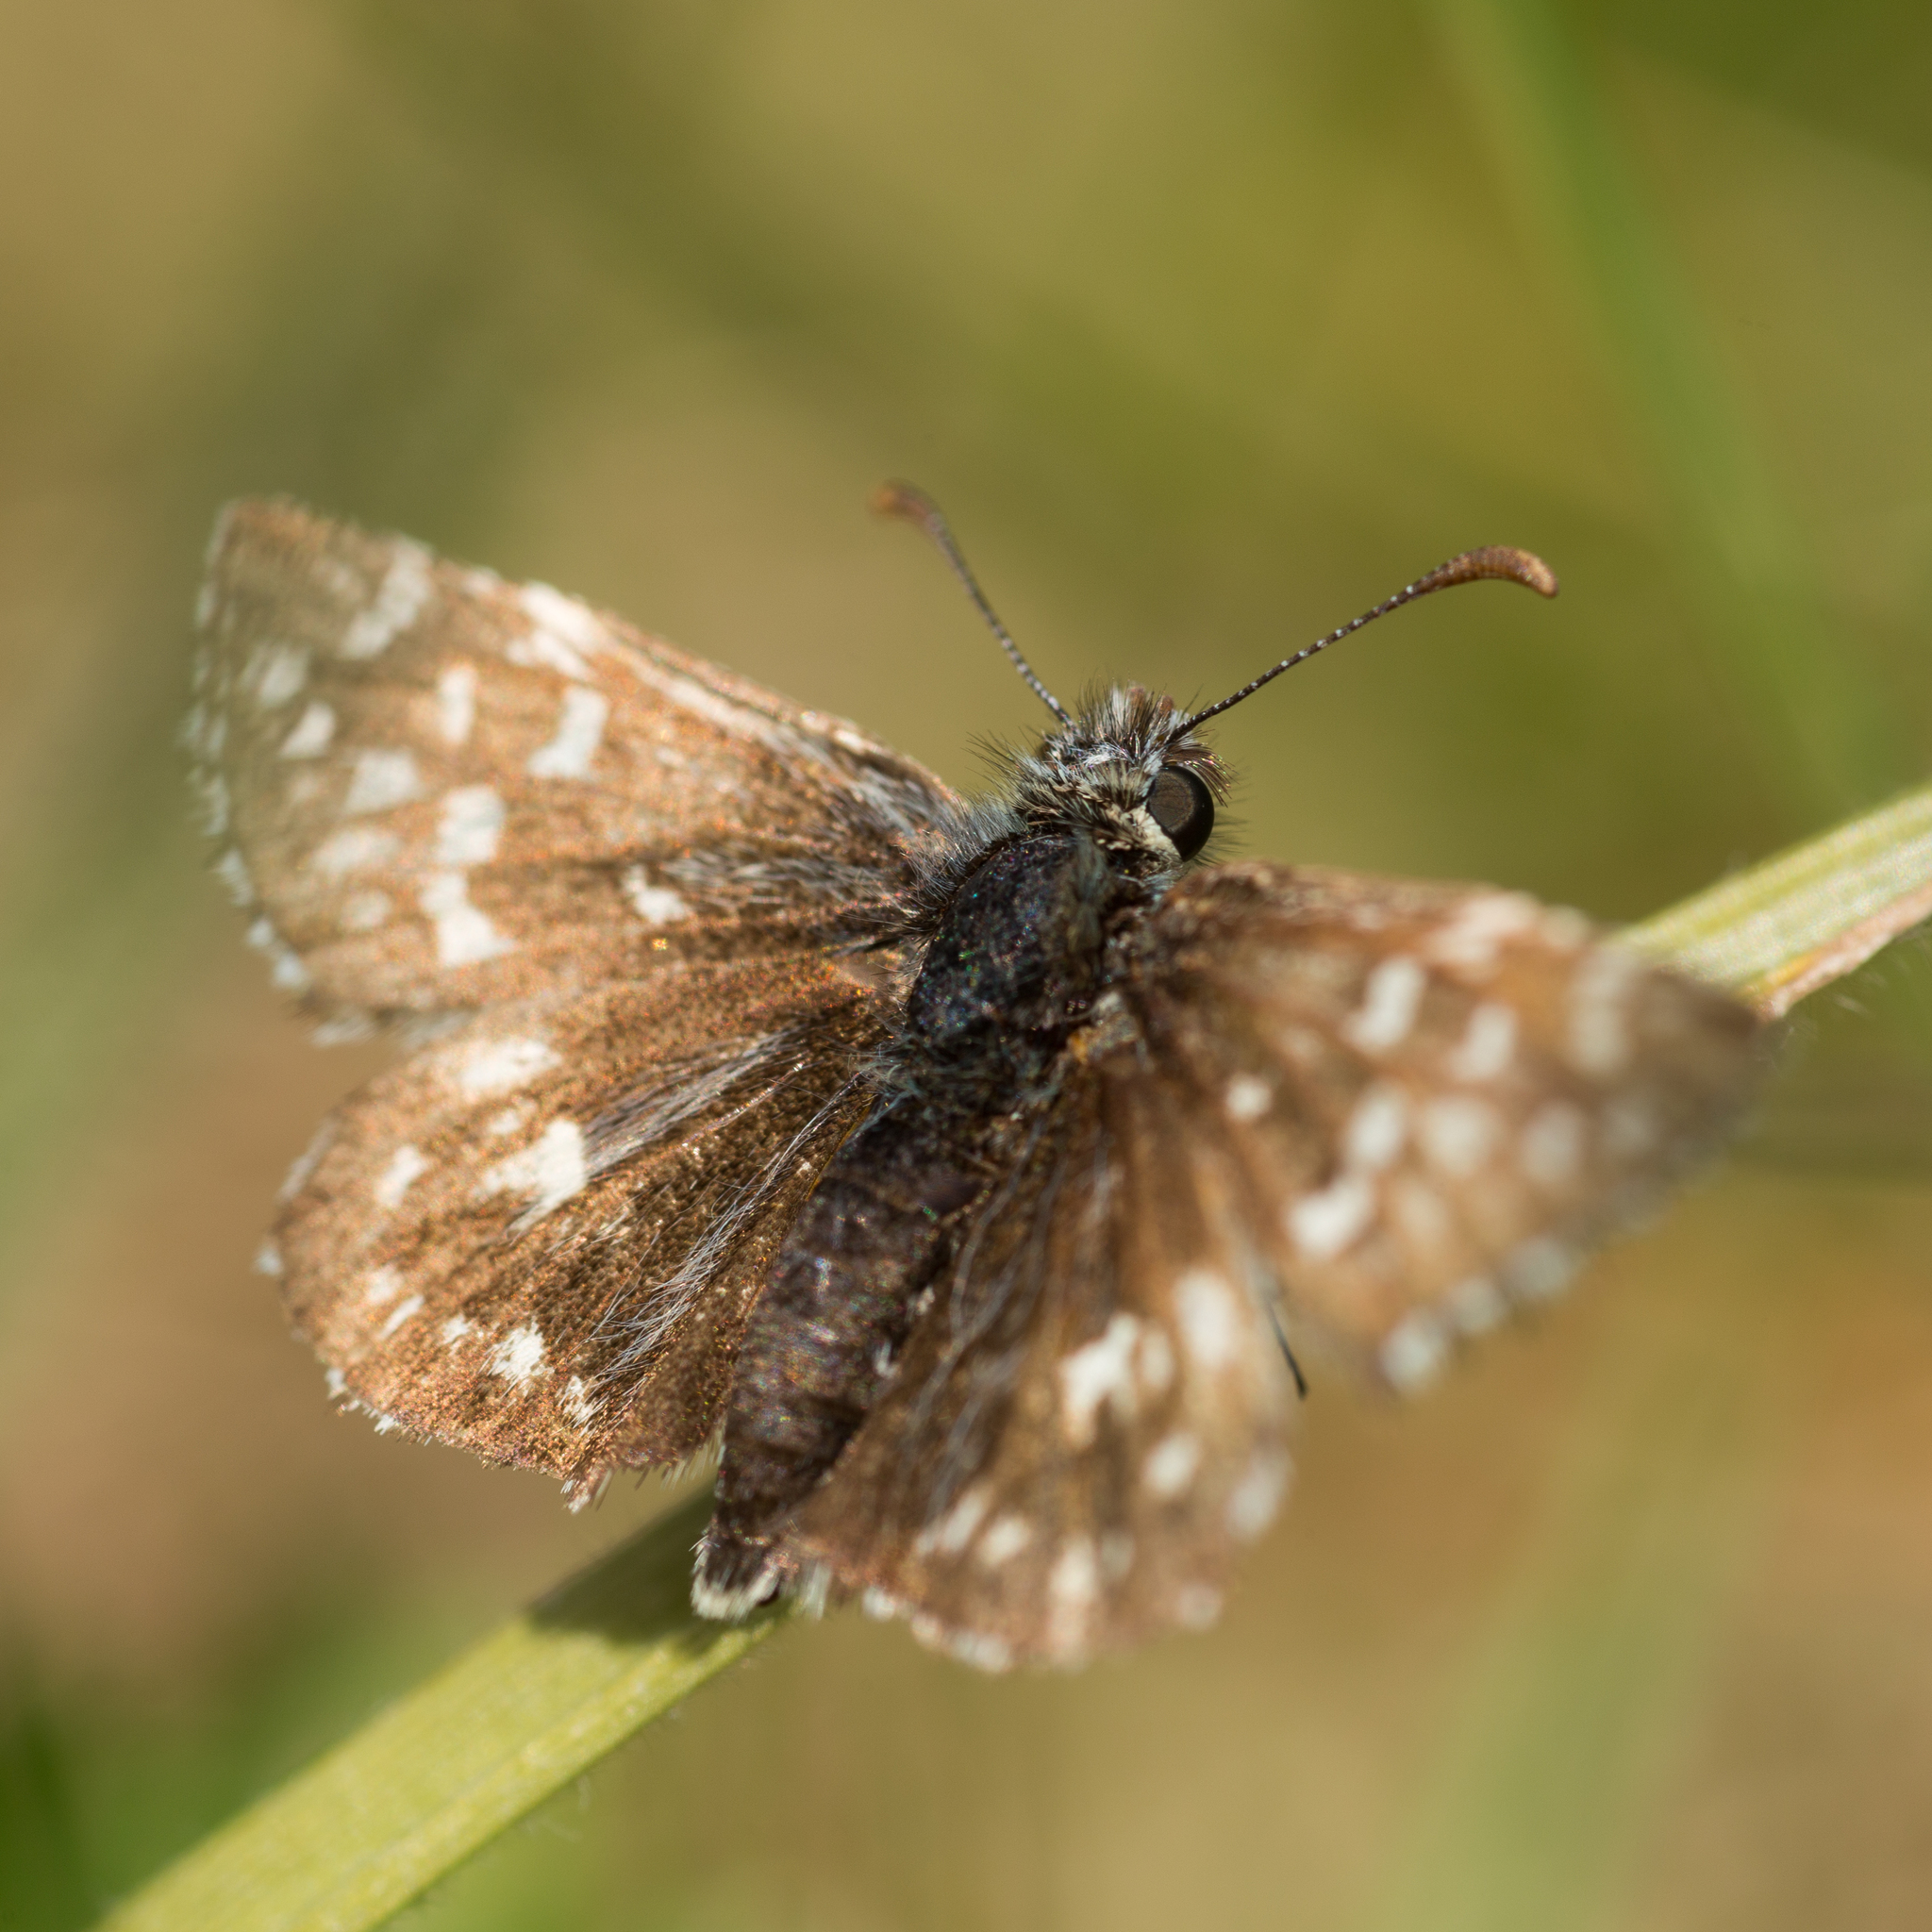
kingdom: Animalia
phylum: Arthropoda
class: Insecta
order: Lepidoptera
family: Hesperiidae
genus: Pyrgus
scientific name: Pyrgus malvae
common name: Grizzled skipper
